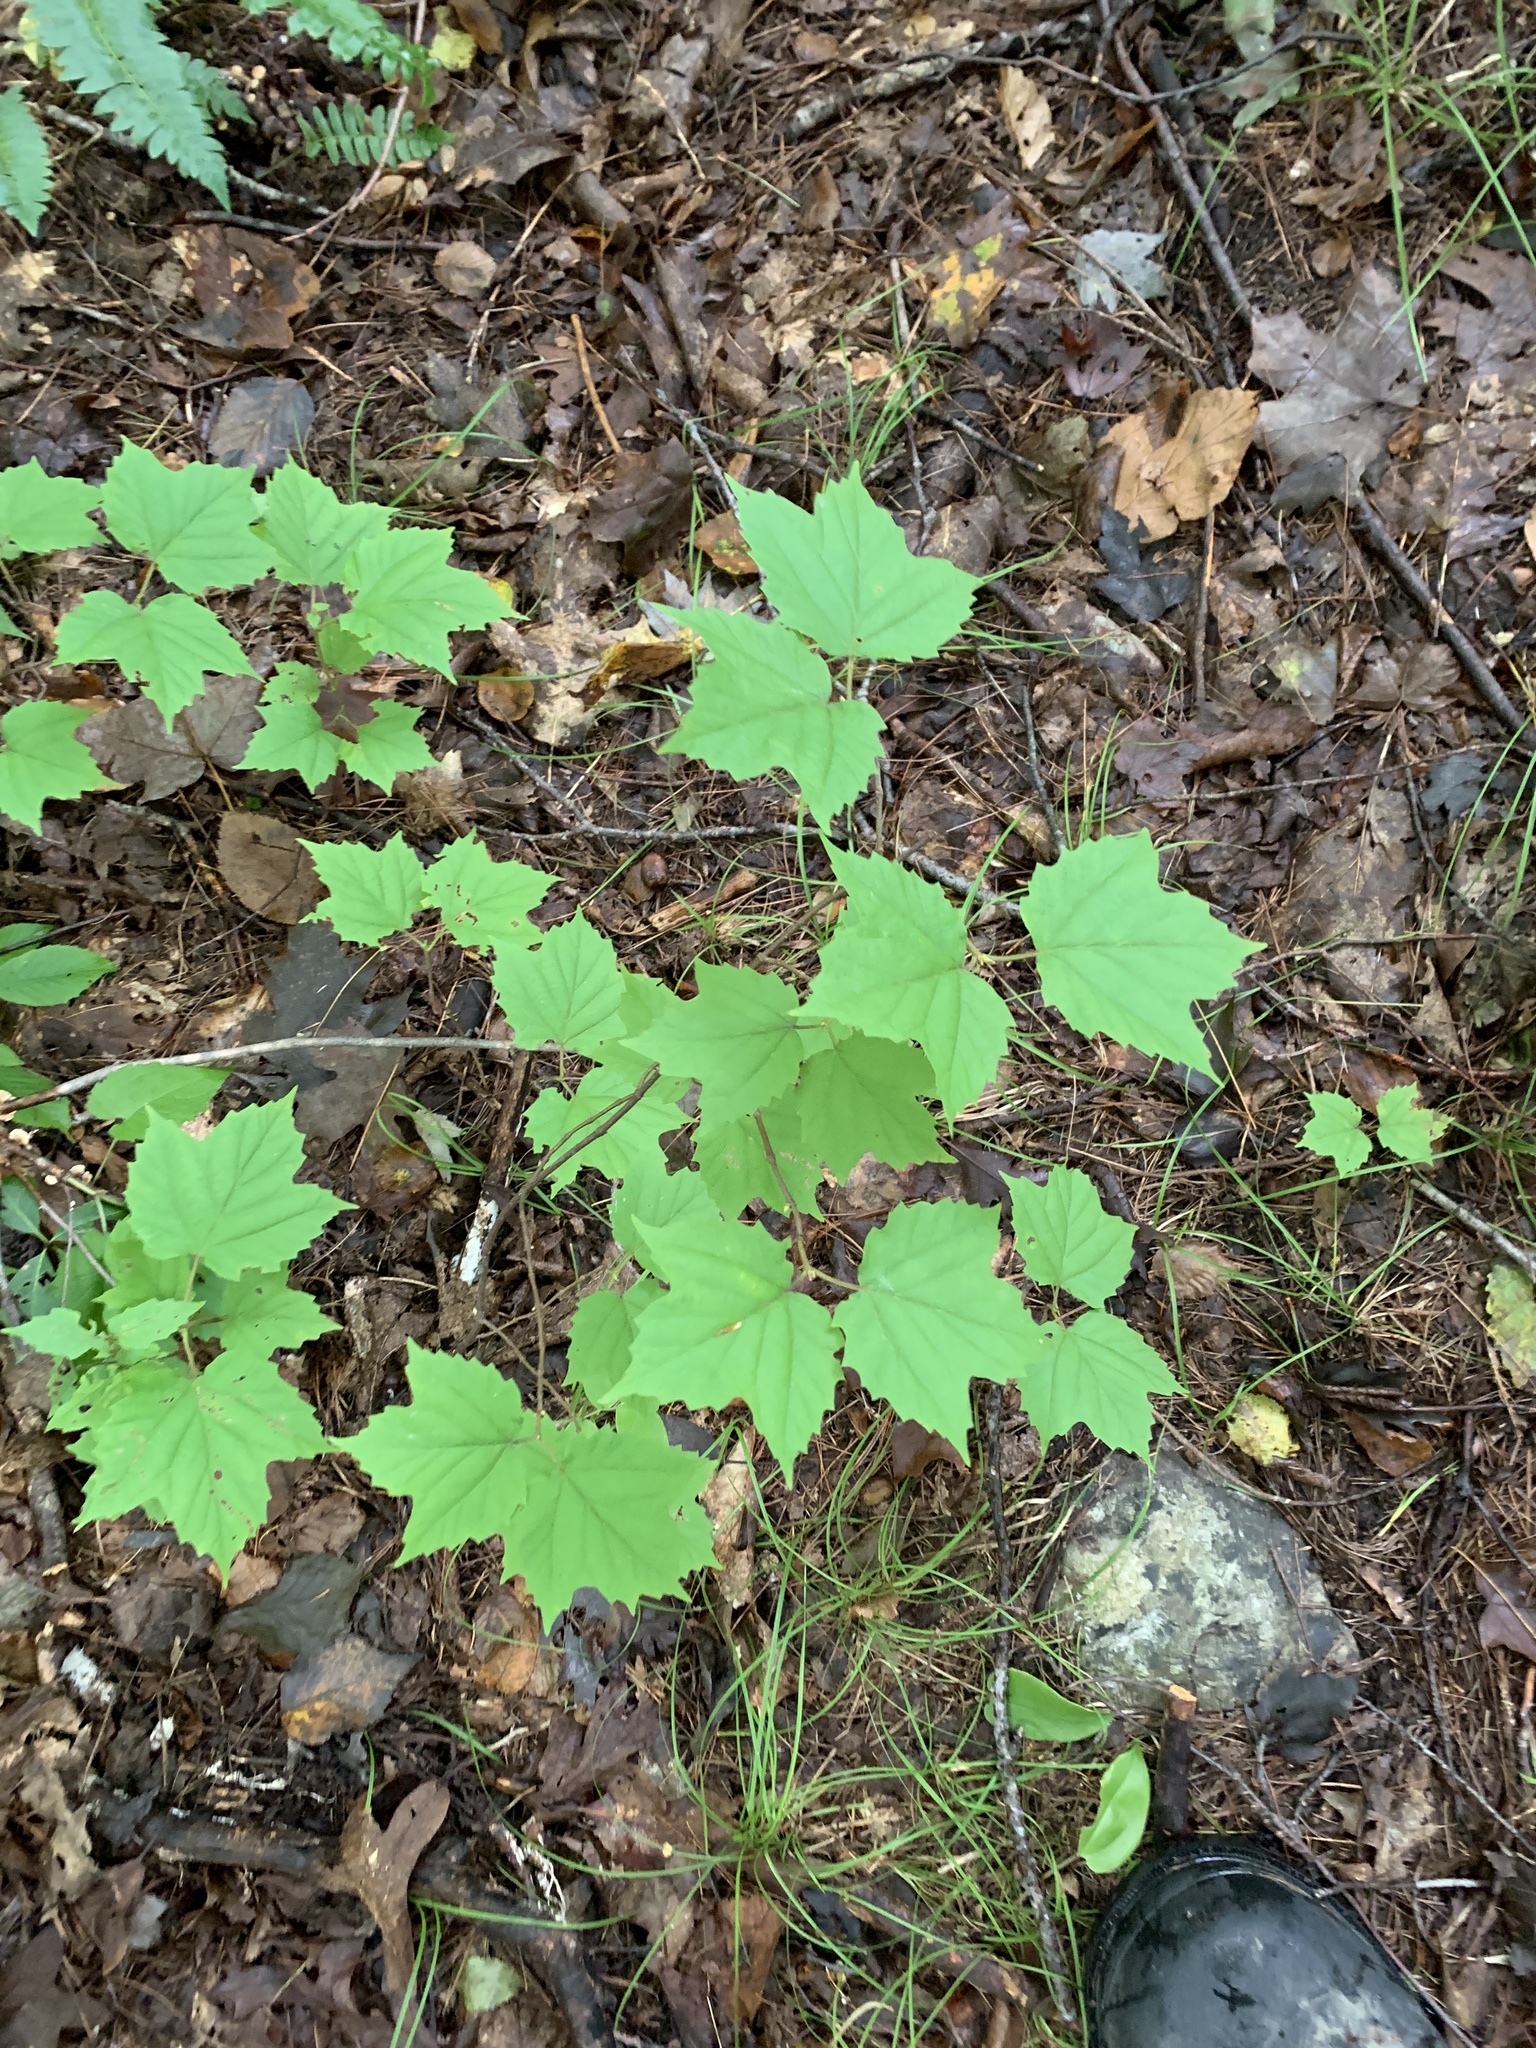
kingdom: Plantae
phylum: Tracheophyta
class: Magnoliopsida
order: Dipsacales
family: Viburnaceae
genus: Viburnum
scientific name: Viburnum acerifolium
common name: Dockmackie
